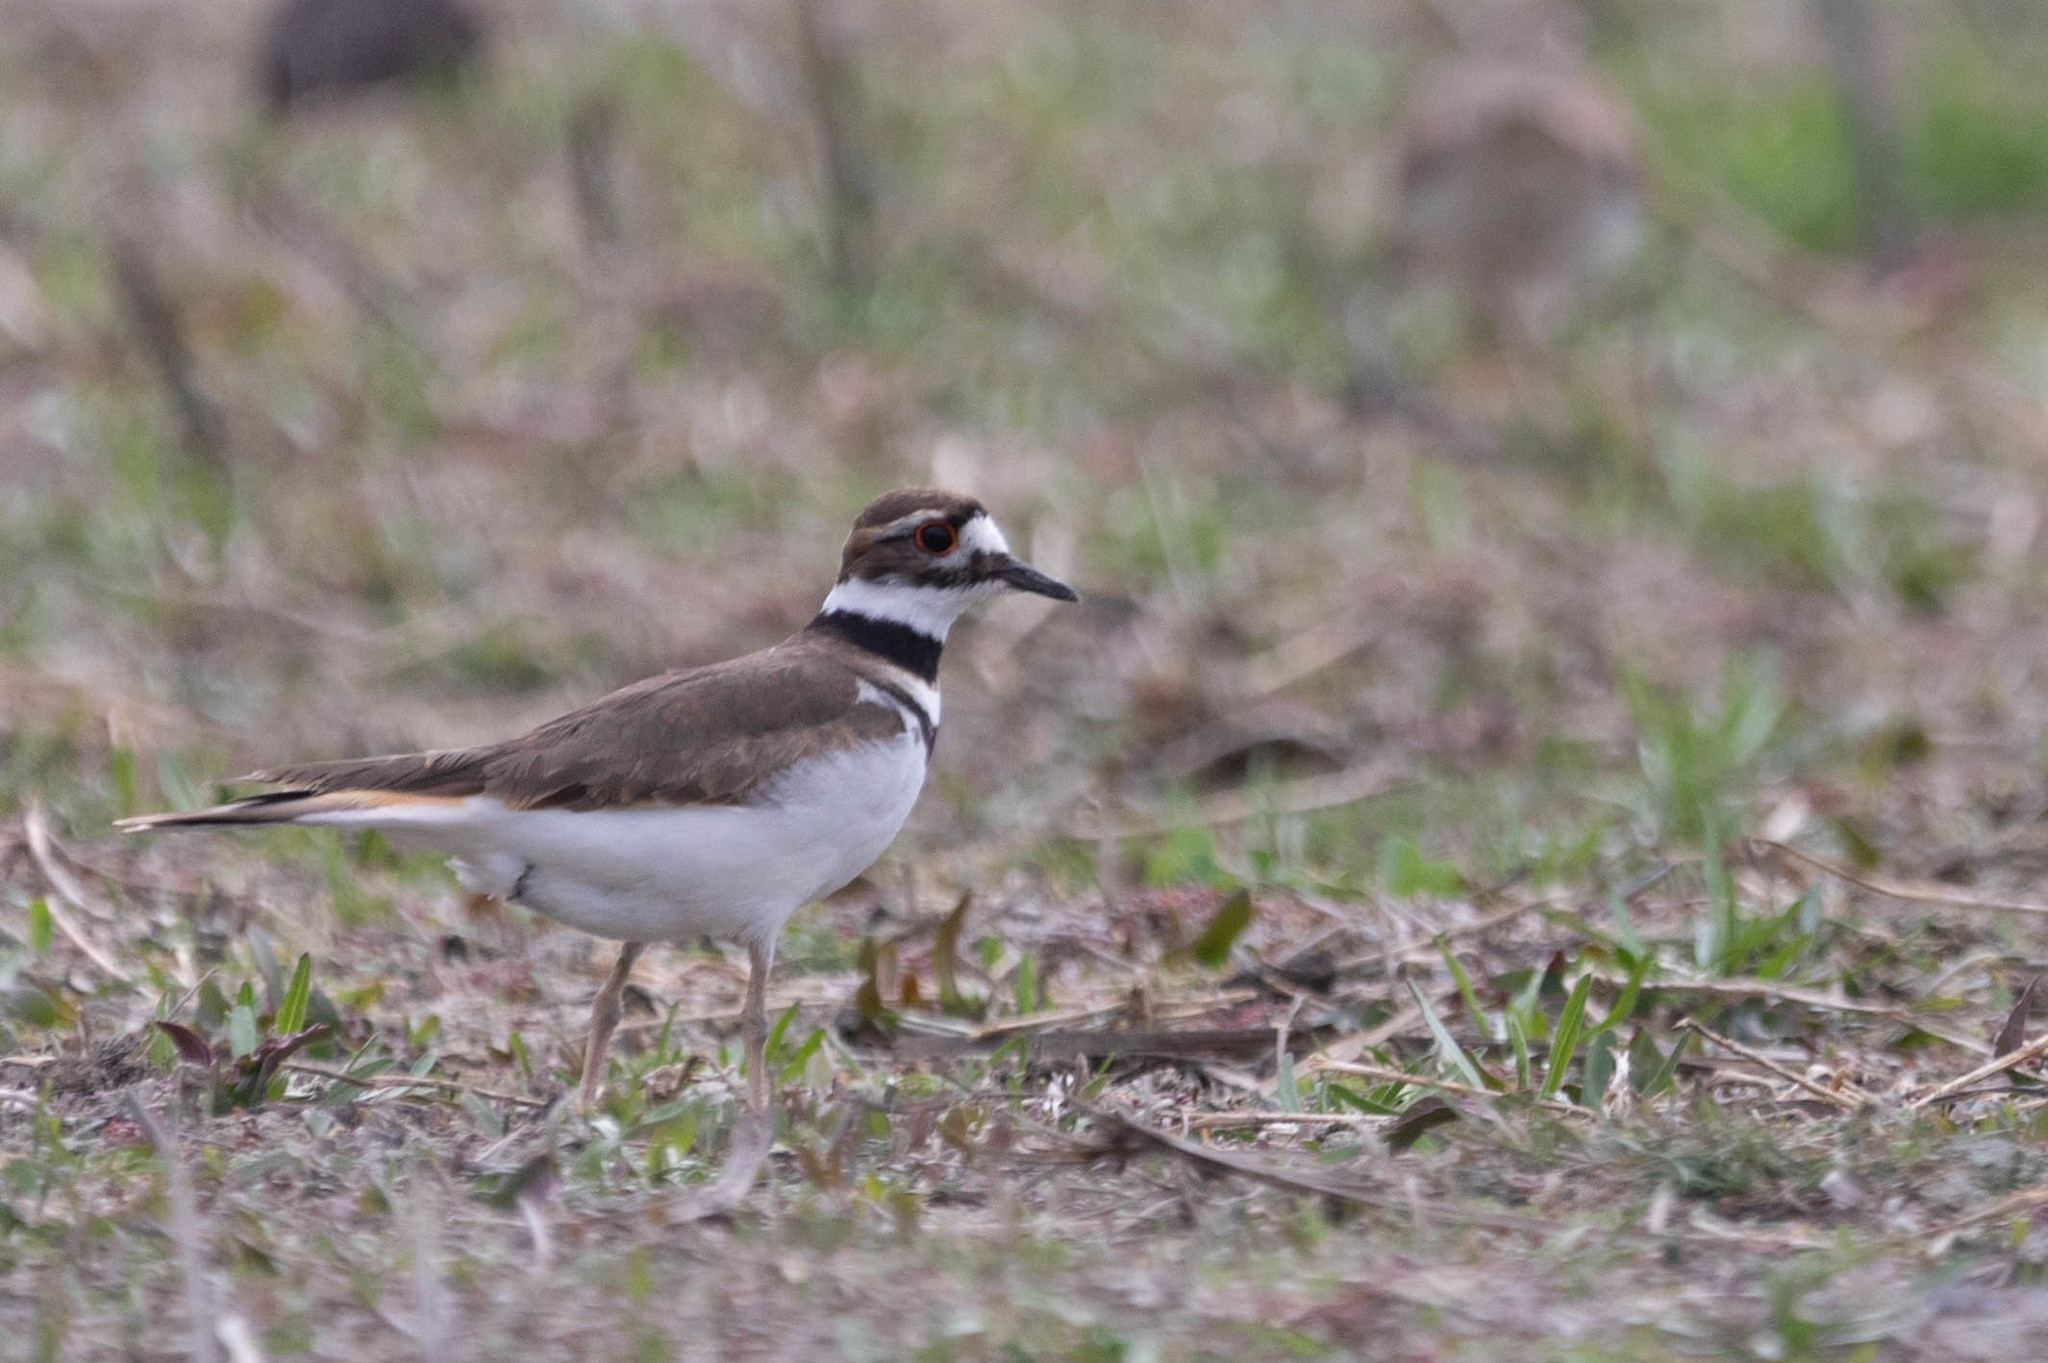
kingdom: Animalia
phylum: Chordata
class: Aves
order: Charadriiformes
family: Charadriidae
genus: Charadrius
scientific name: Charadrius vociferus
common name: Killdeer
